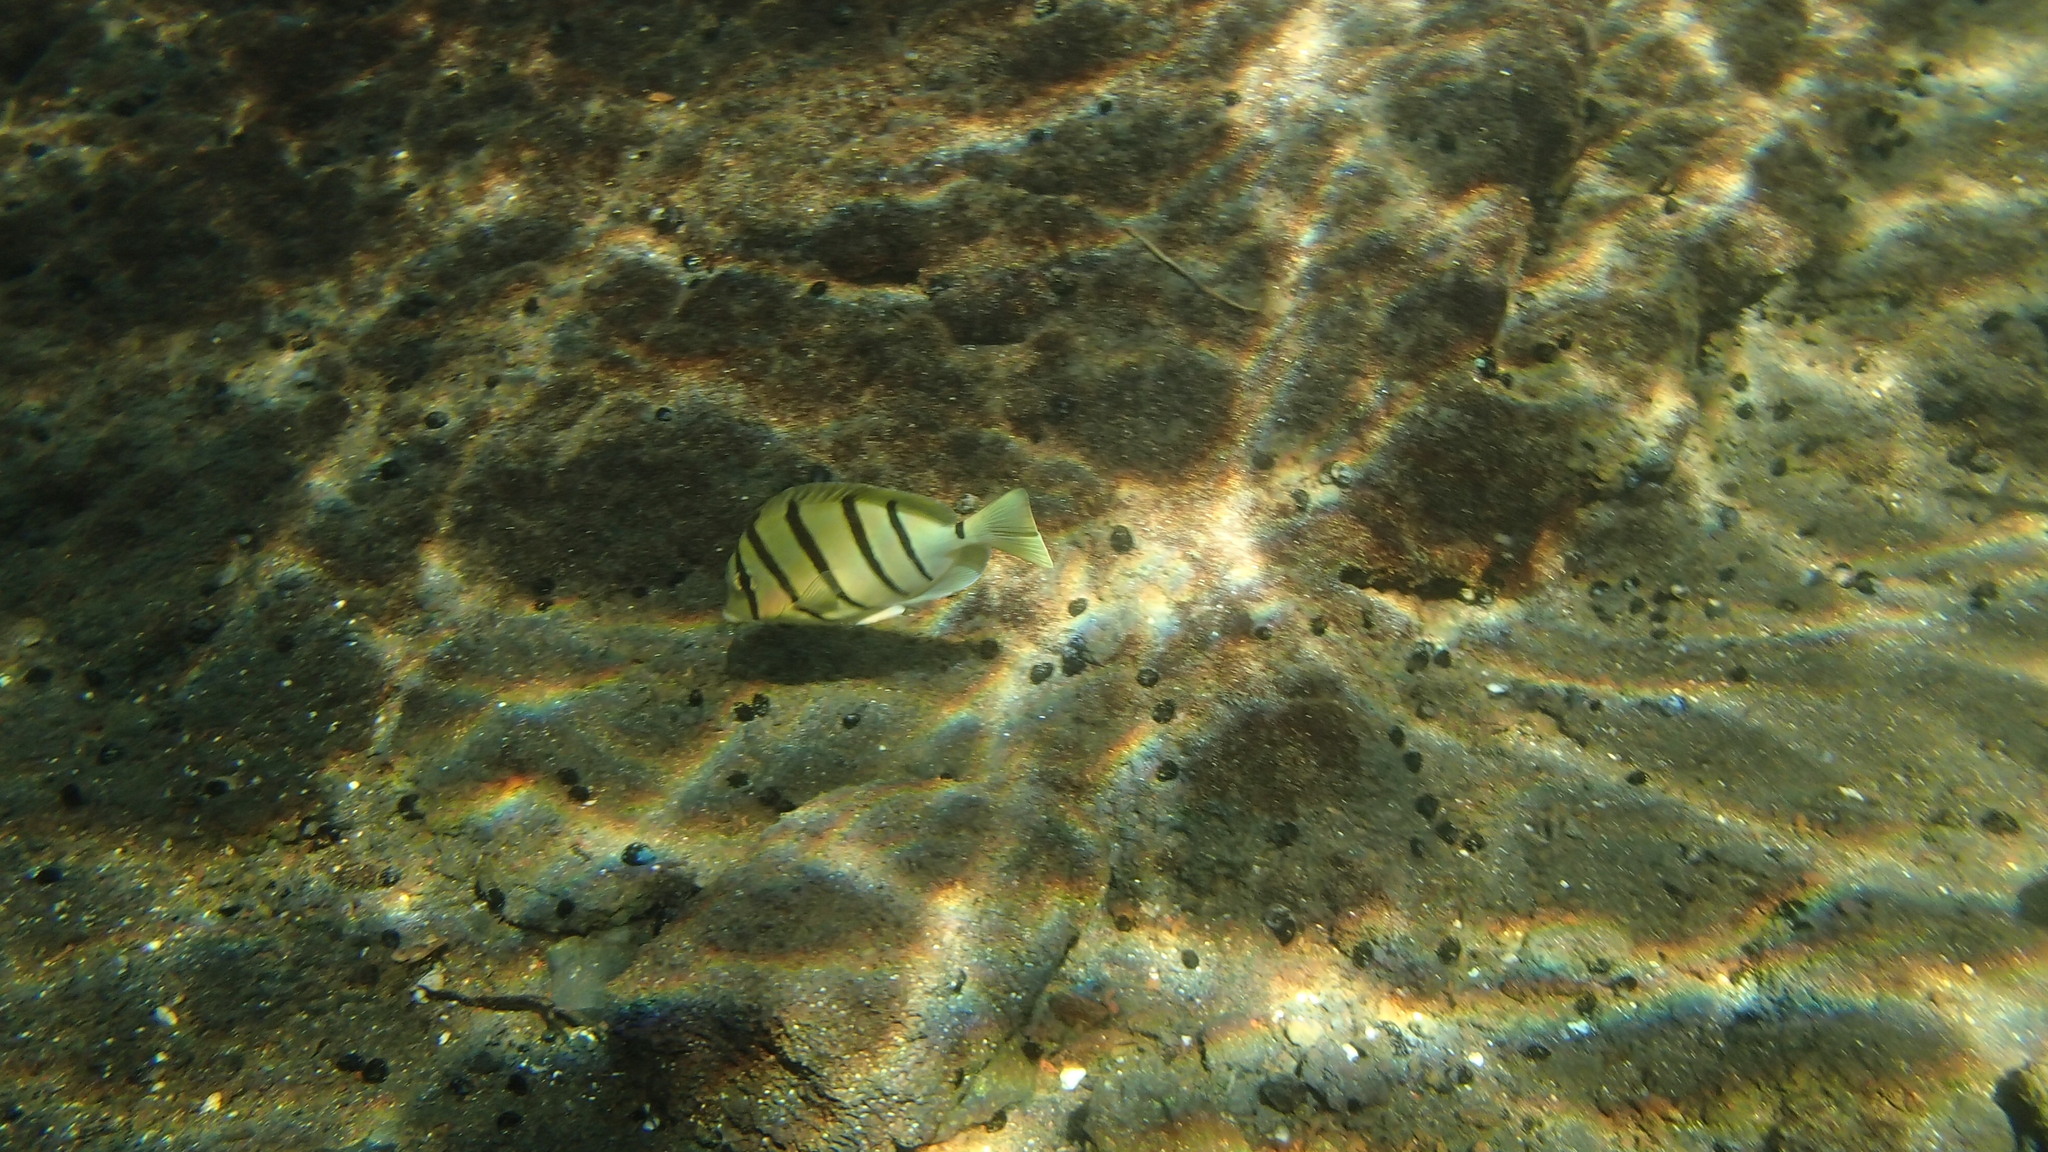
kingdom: Animalia
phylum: Chordata
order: Perciformes
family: Acanthuridae
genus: Acanthurus
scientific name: Acanthurus triostegus
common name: Convict surgeonfish
